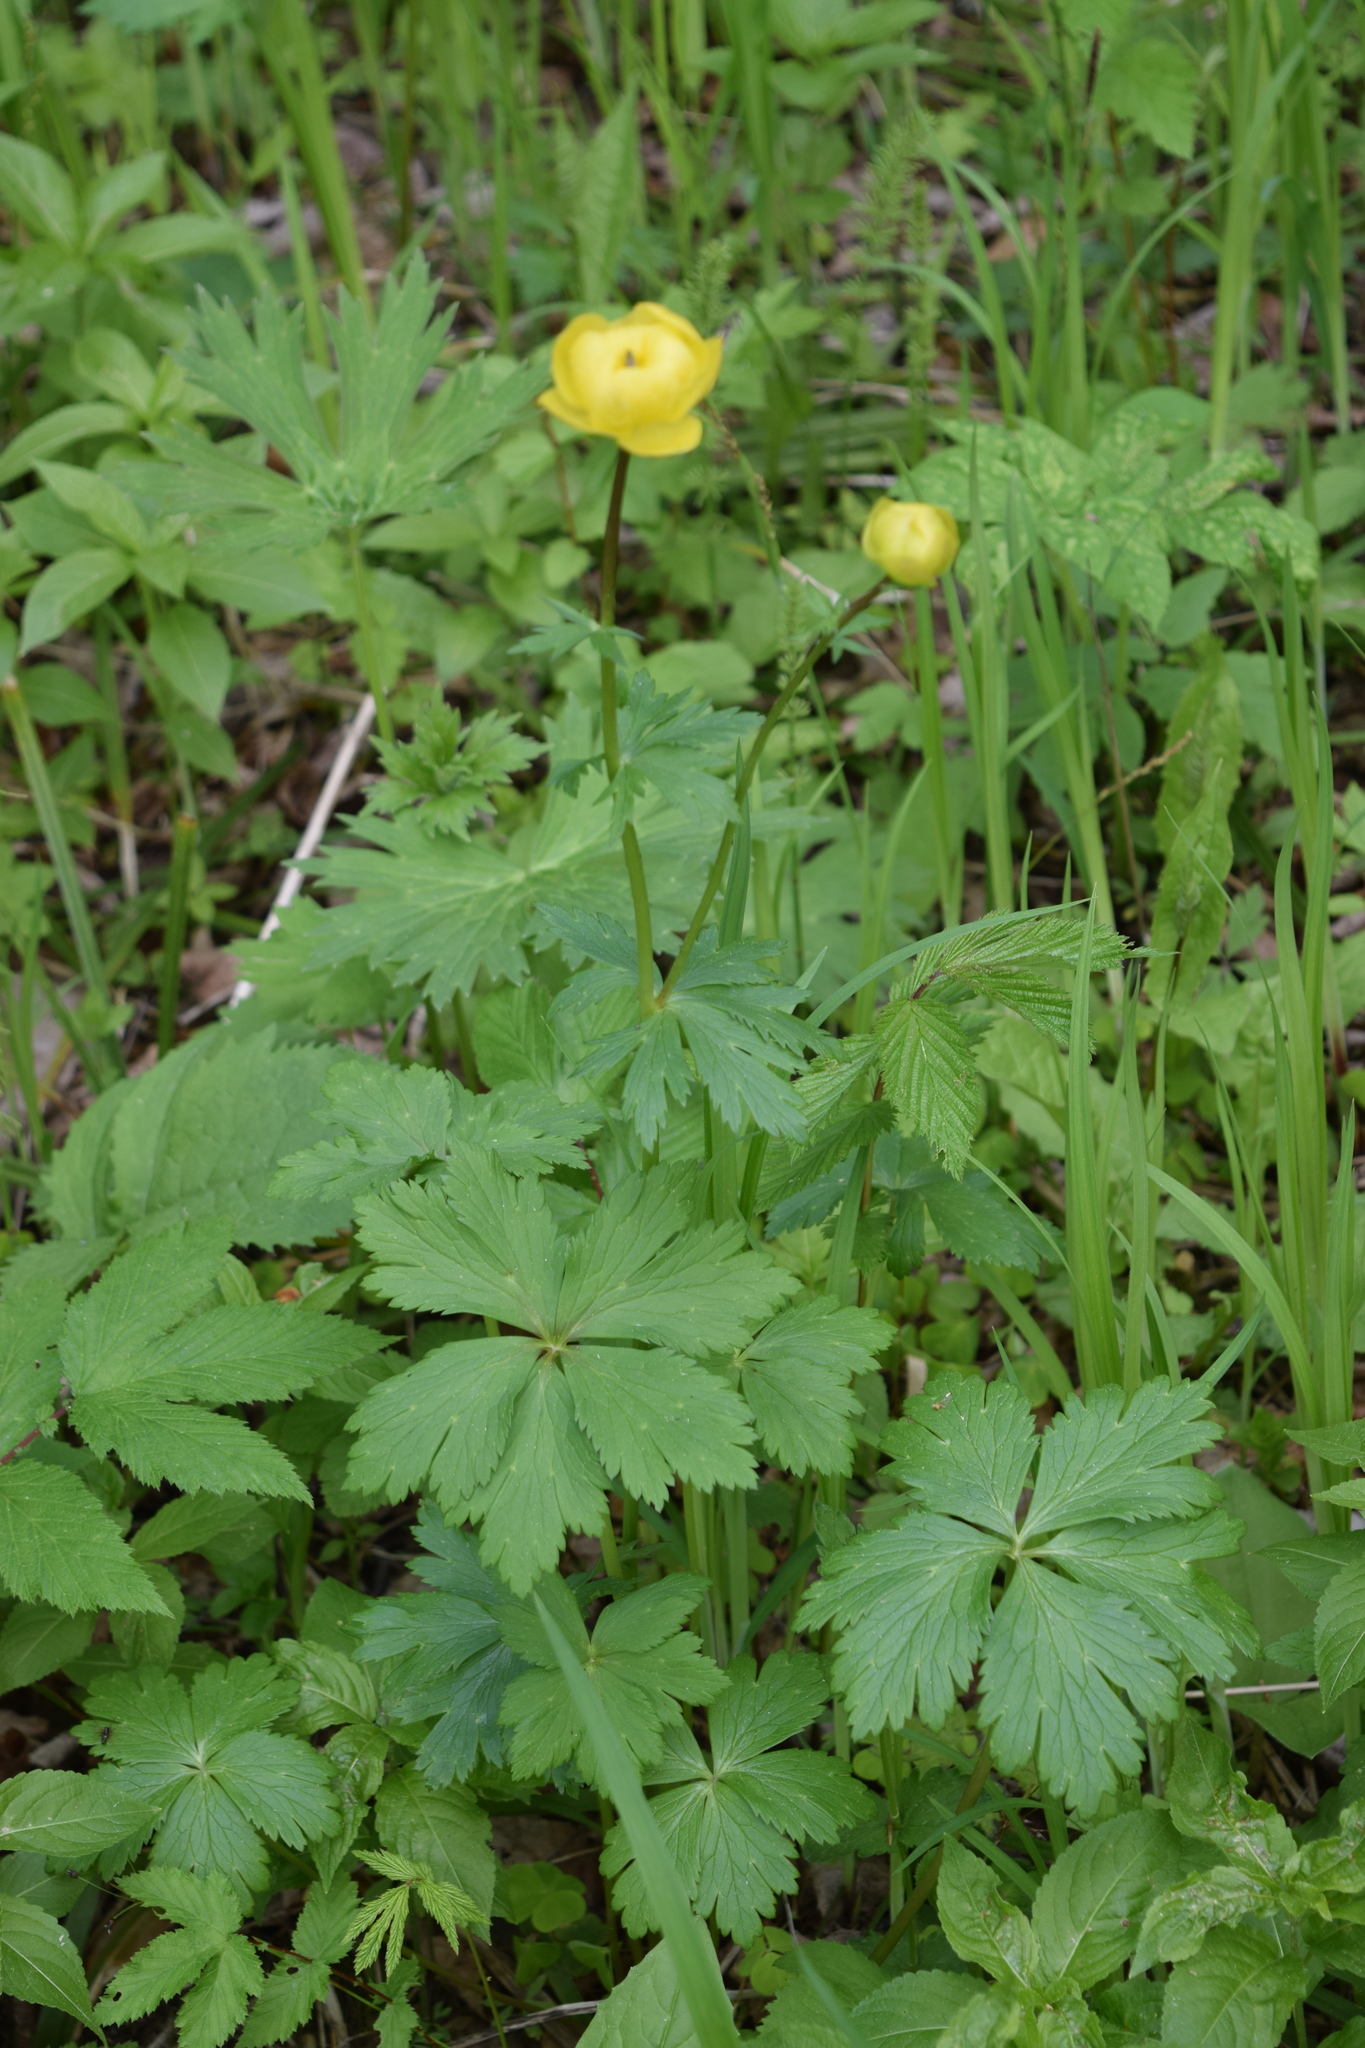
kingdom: Plantae
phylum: Tracheophyta
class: Magnoliopsida
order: Ranunculales
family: Ranunculaceae
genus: Trollius
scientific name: Trollius europaeus
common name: European globeflower
